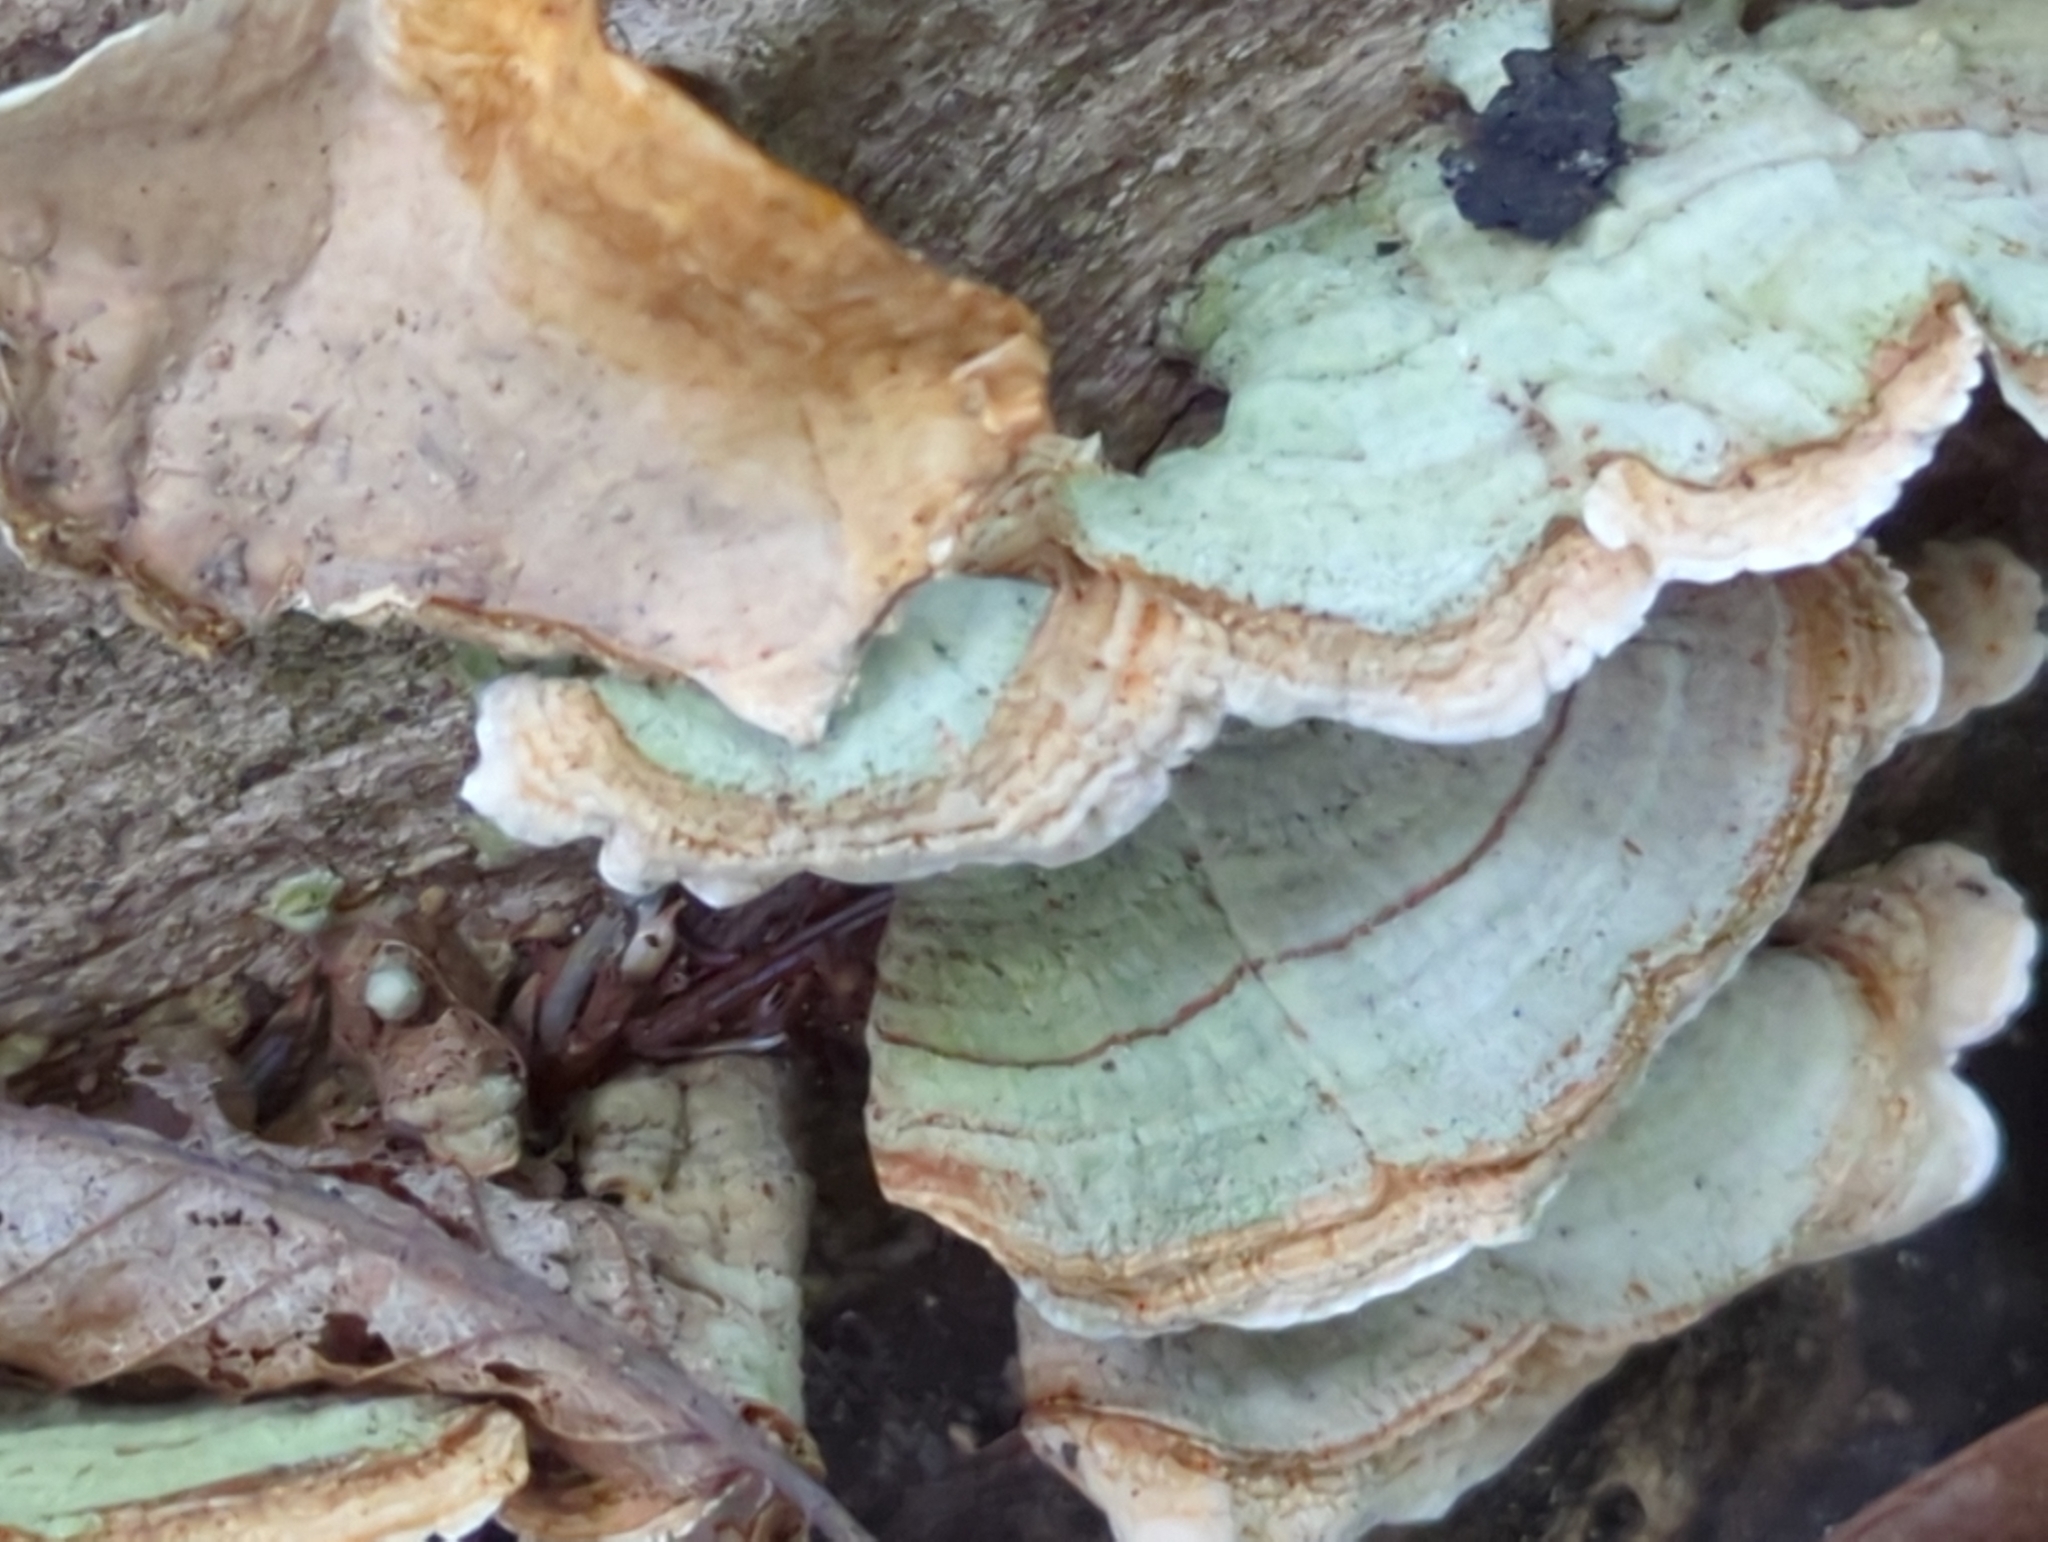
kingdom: Fungi
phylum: Basidiomycota
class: Agaricomycetes
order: Russulales
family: Stereaceae
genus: Stereum
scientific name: Stereum ostrea
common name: False turkeytail
